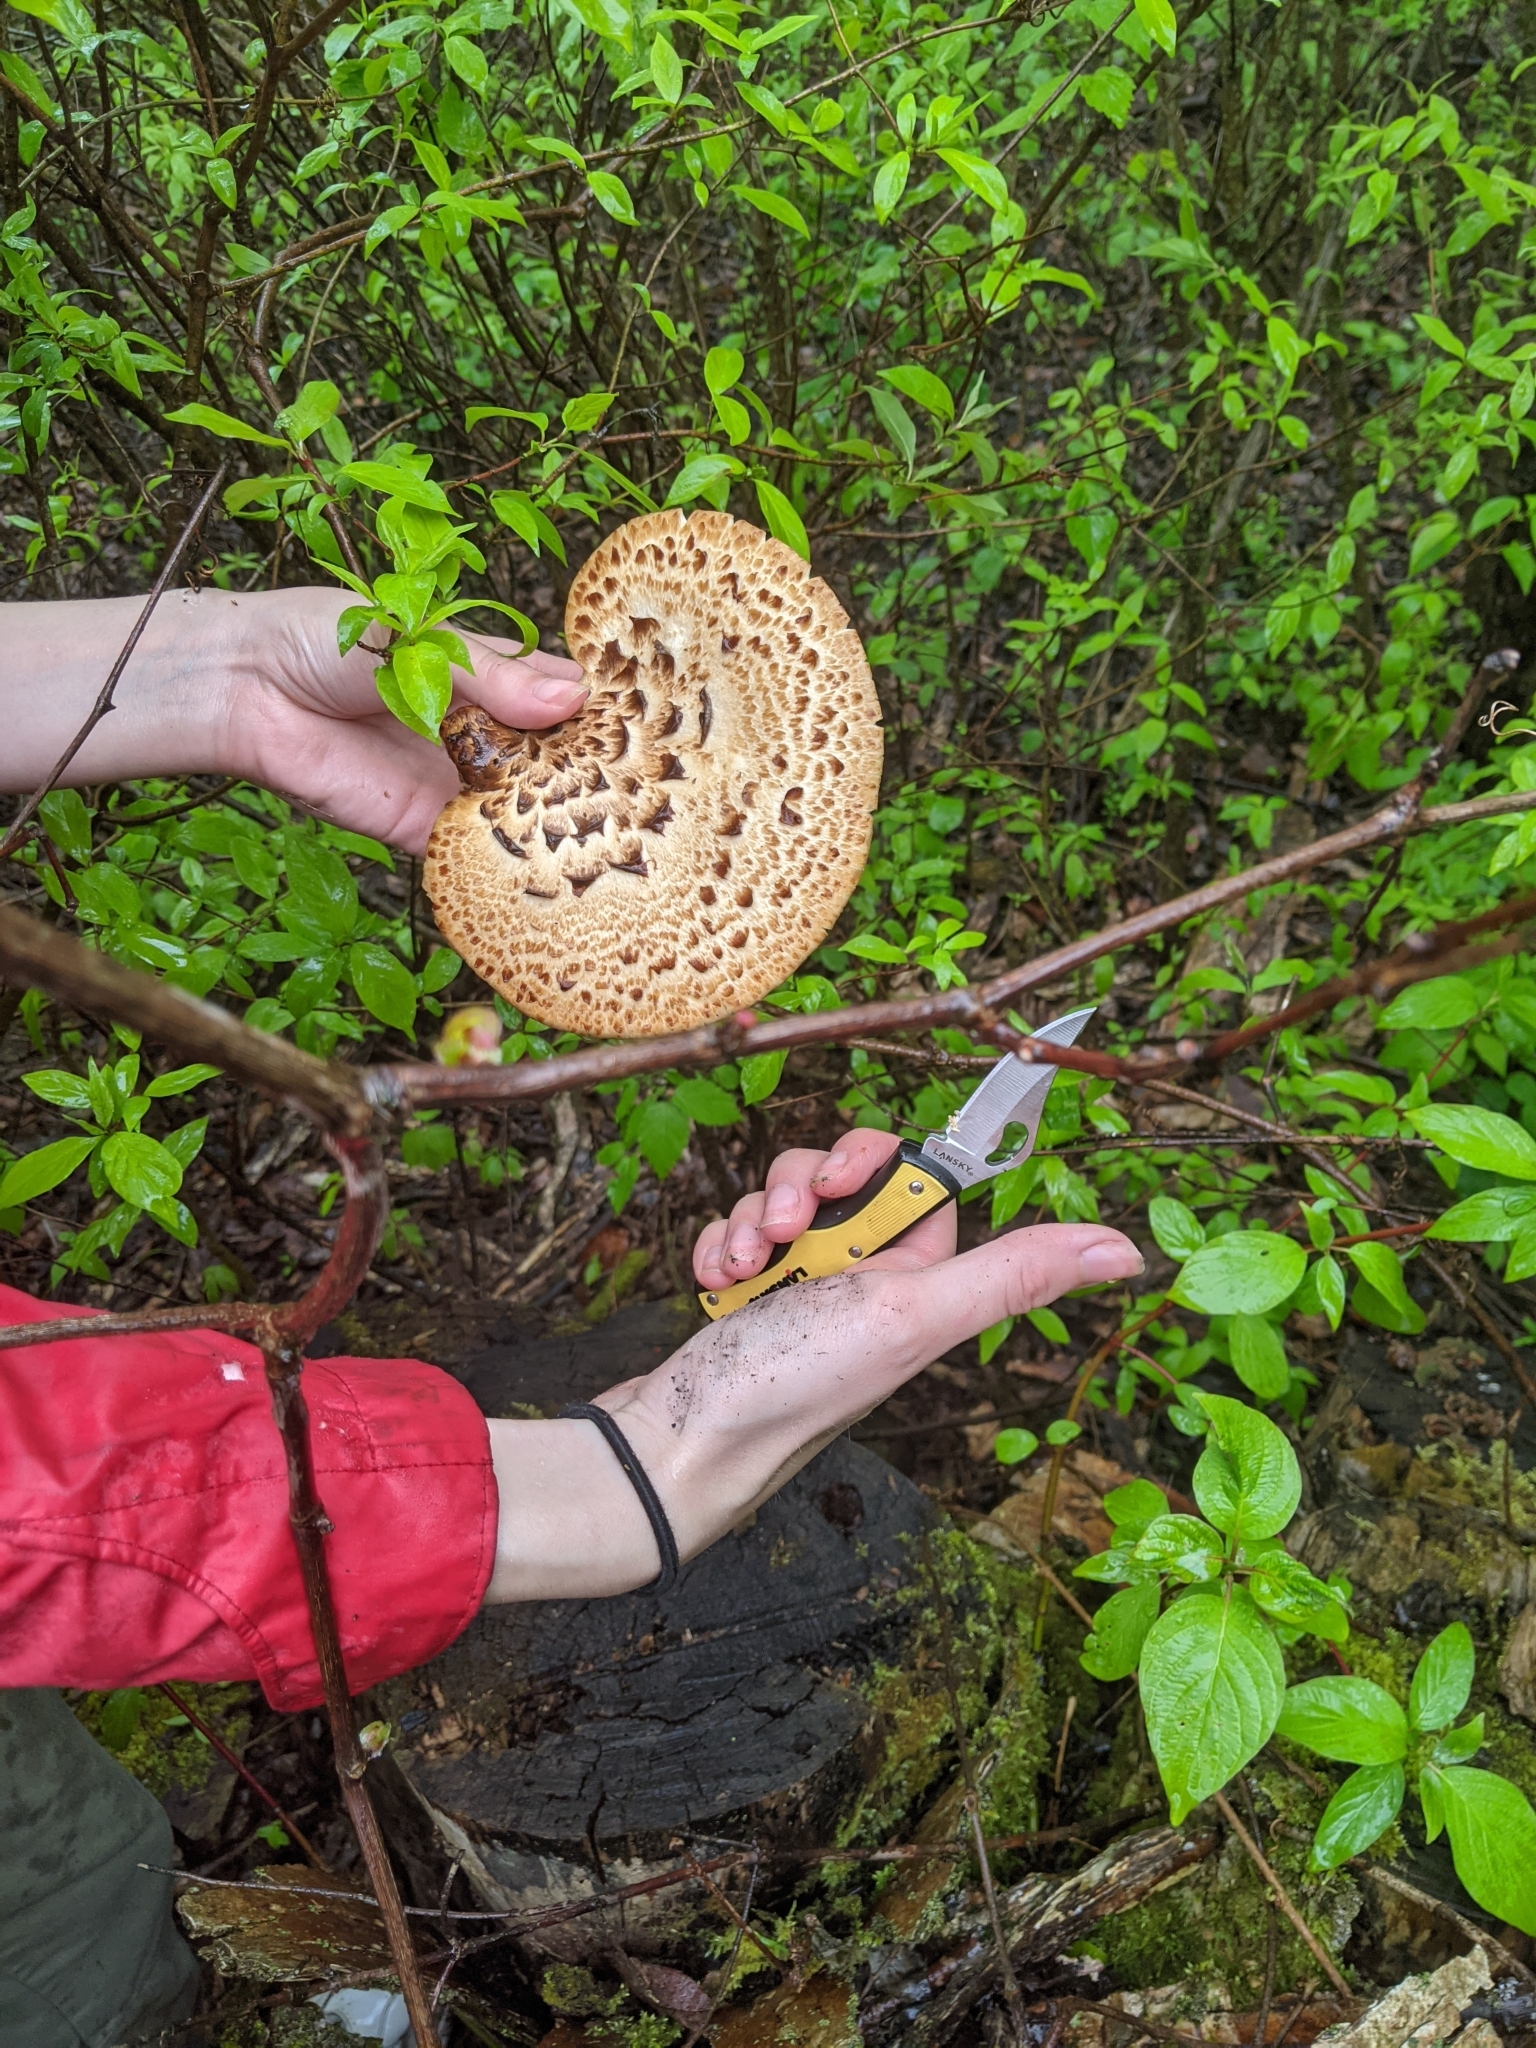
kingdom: Fungi
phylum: Basidiomycota
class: Agaricomycetes
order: Polyporales
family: Polyporaceae
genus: Cerioporus
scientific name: Cerioporus squamosus
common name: Dryad's saddle
